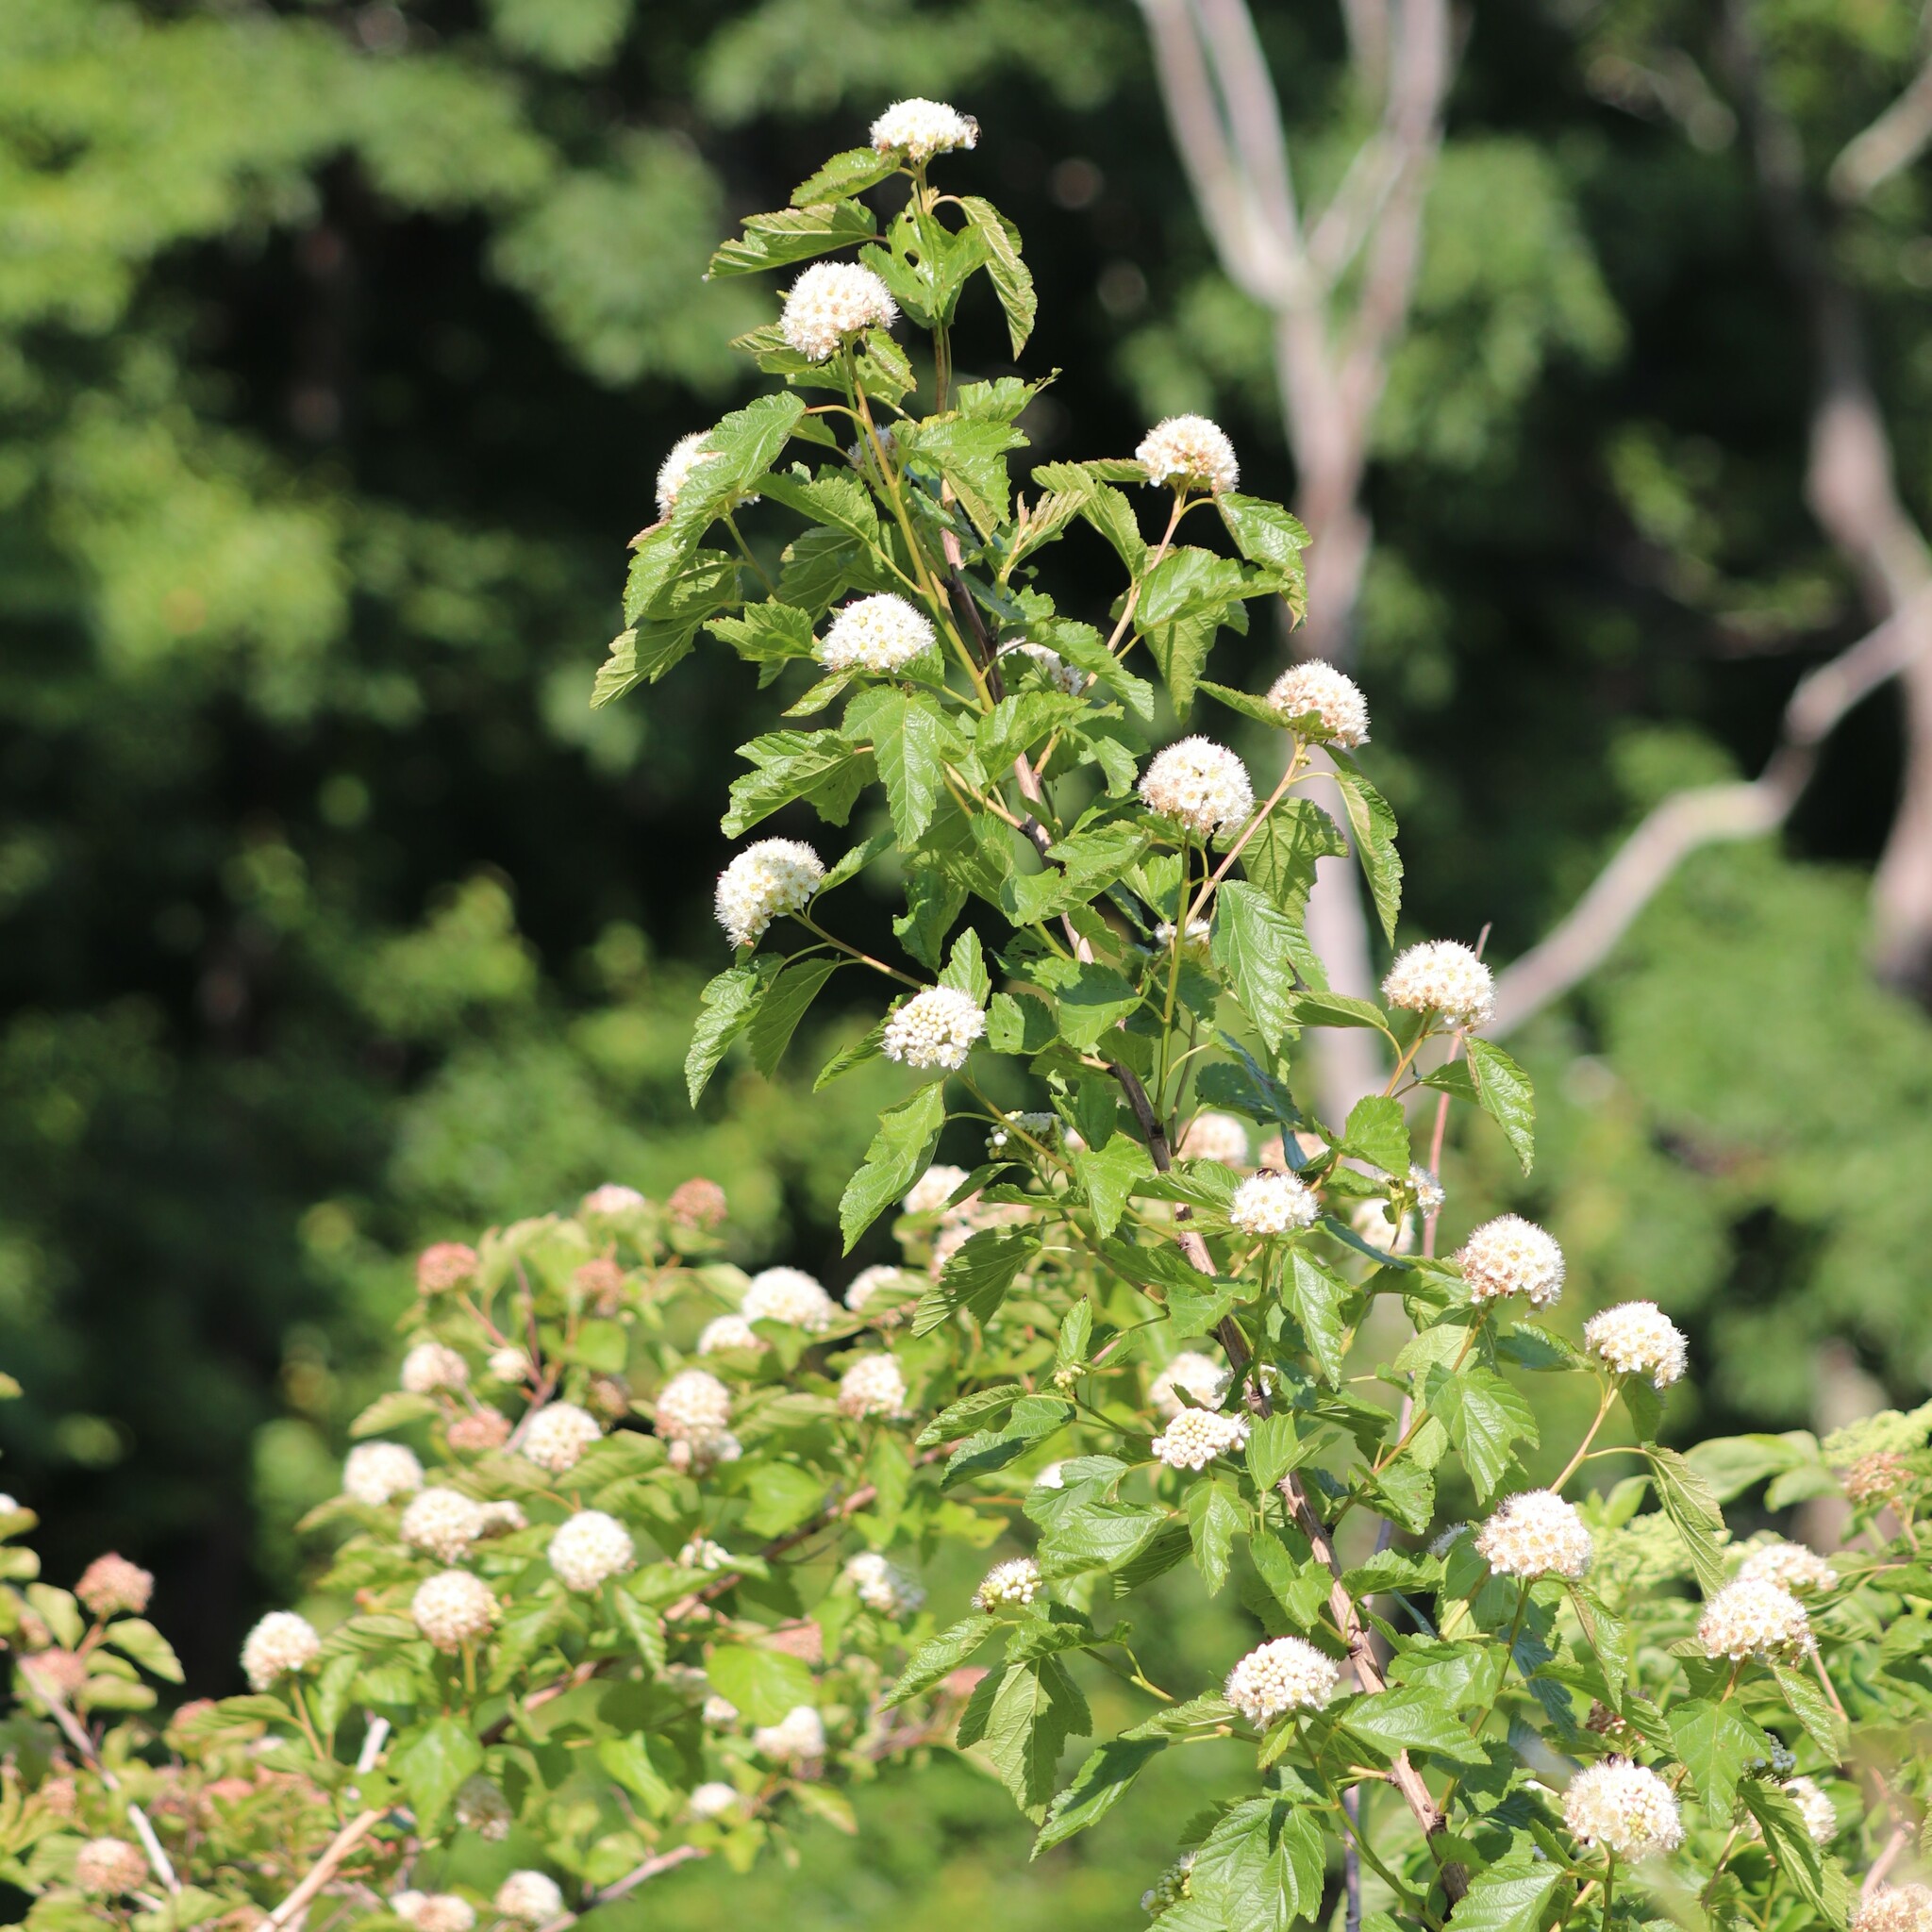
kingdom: Plantae
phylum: Tracheophyta
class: Magnoliopsida
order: Rosales
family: Rosaceae
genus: Physocarpus
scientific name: Physocarpus opulifolius
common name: Ninebark
